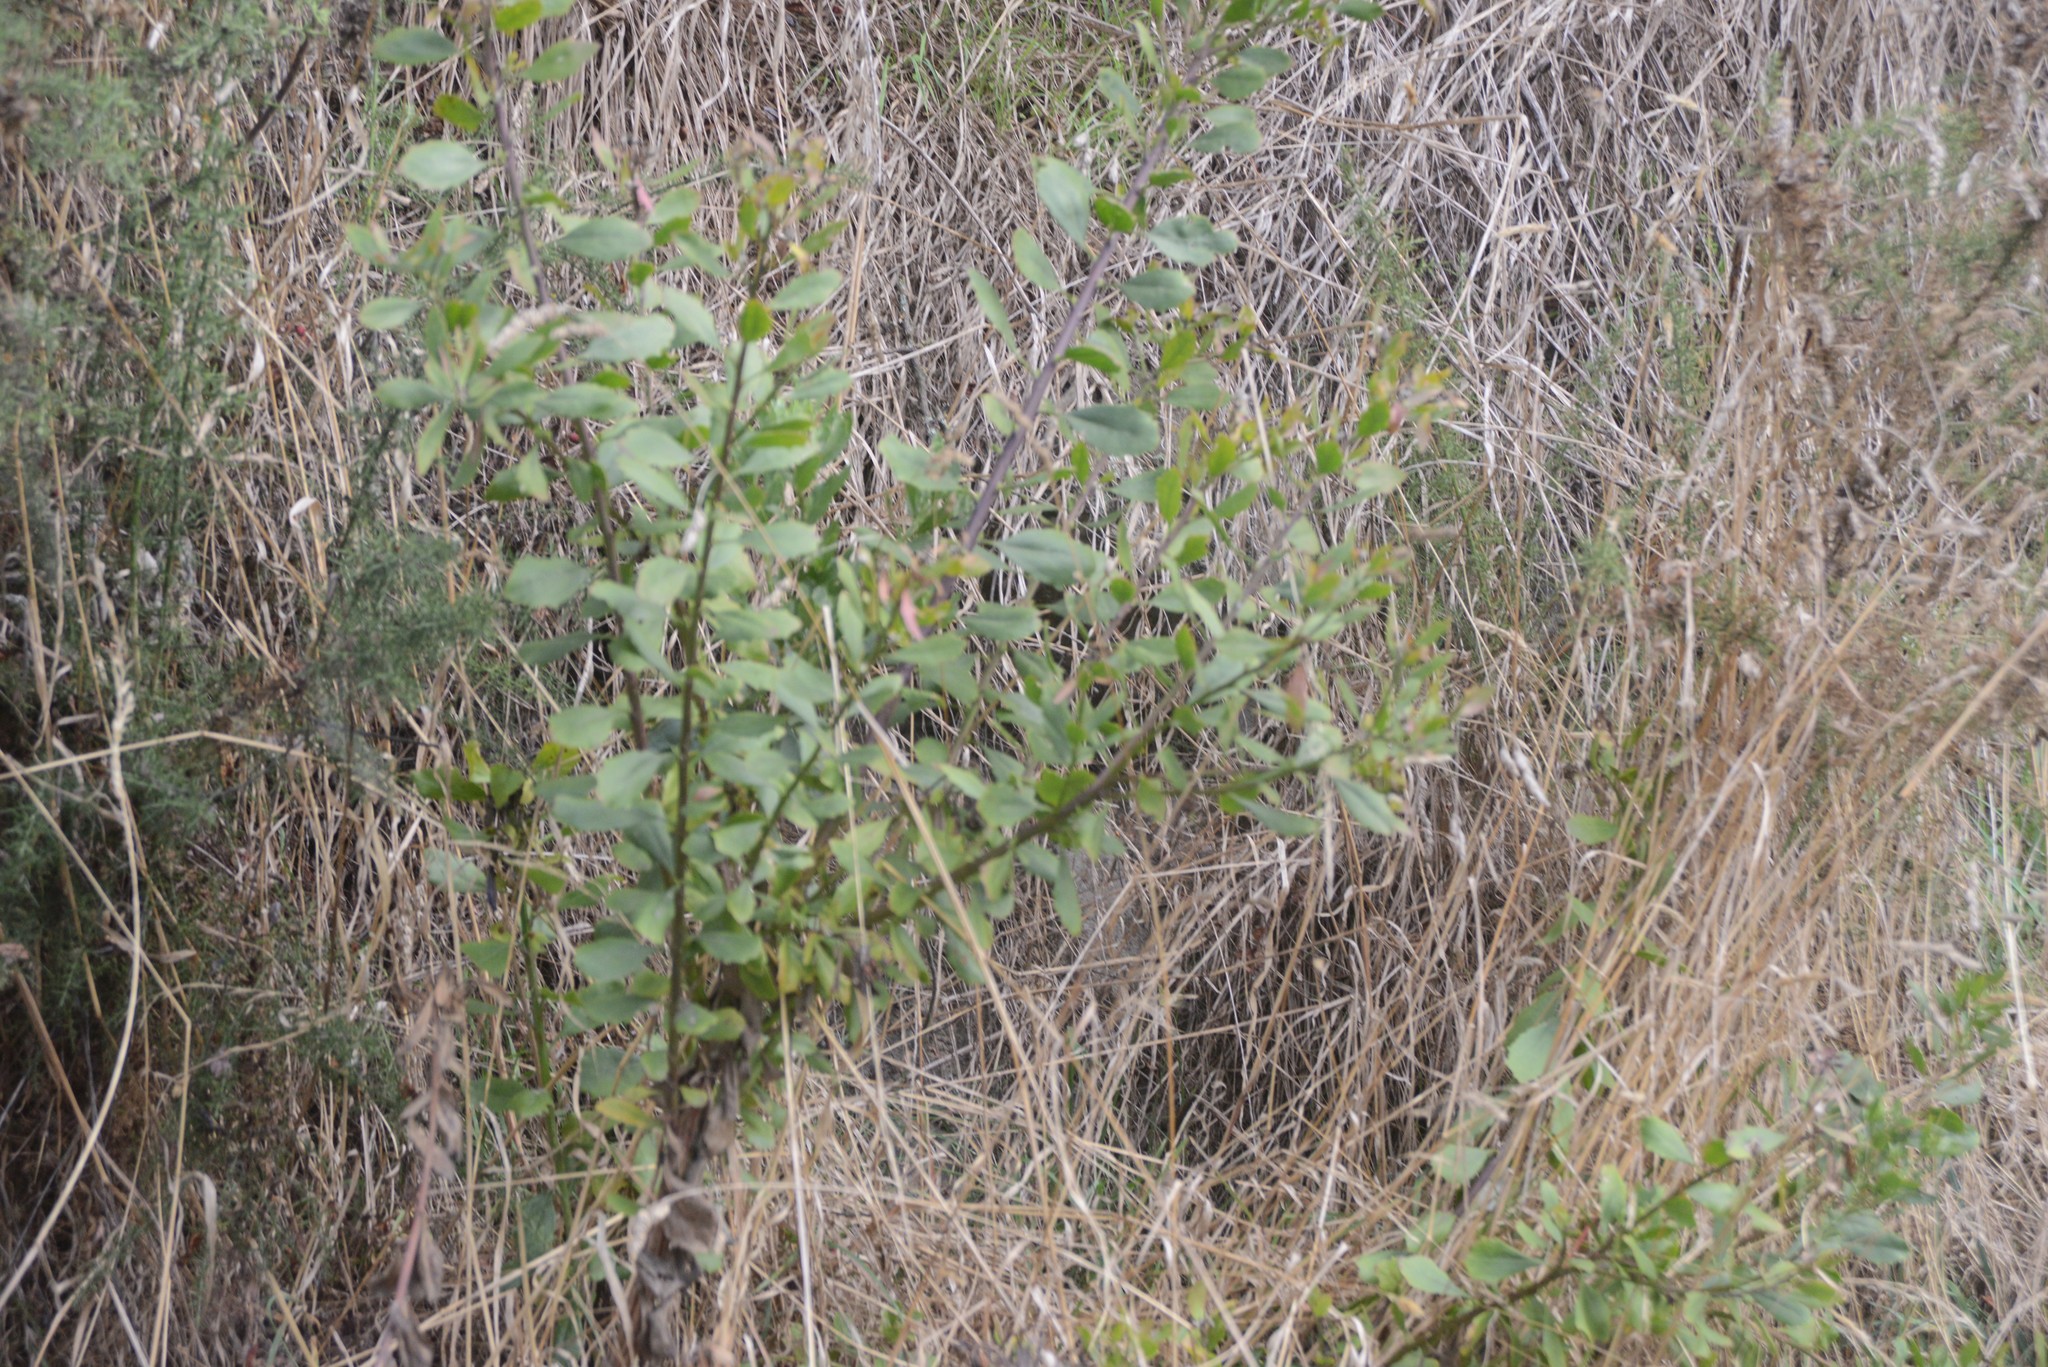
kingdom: Plantae
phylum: Tracheophyta
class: Magnoliopsida
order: Asterales
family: Asteraceae
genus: Osteospermum
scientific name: Osteospermum moniliferum
